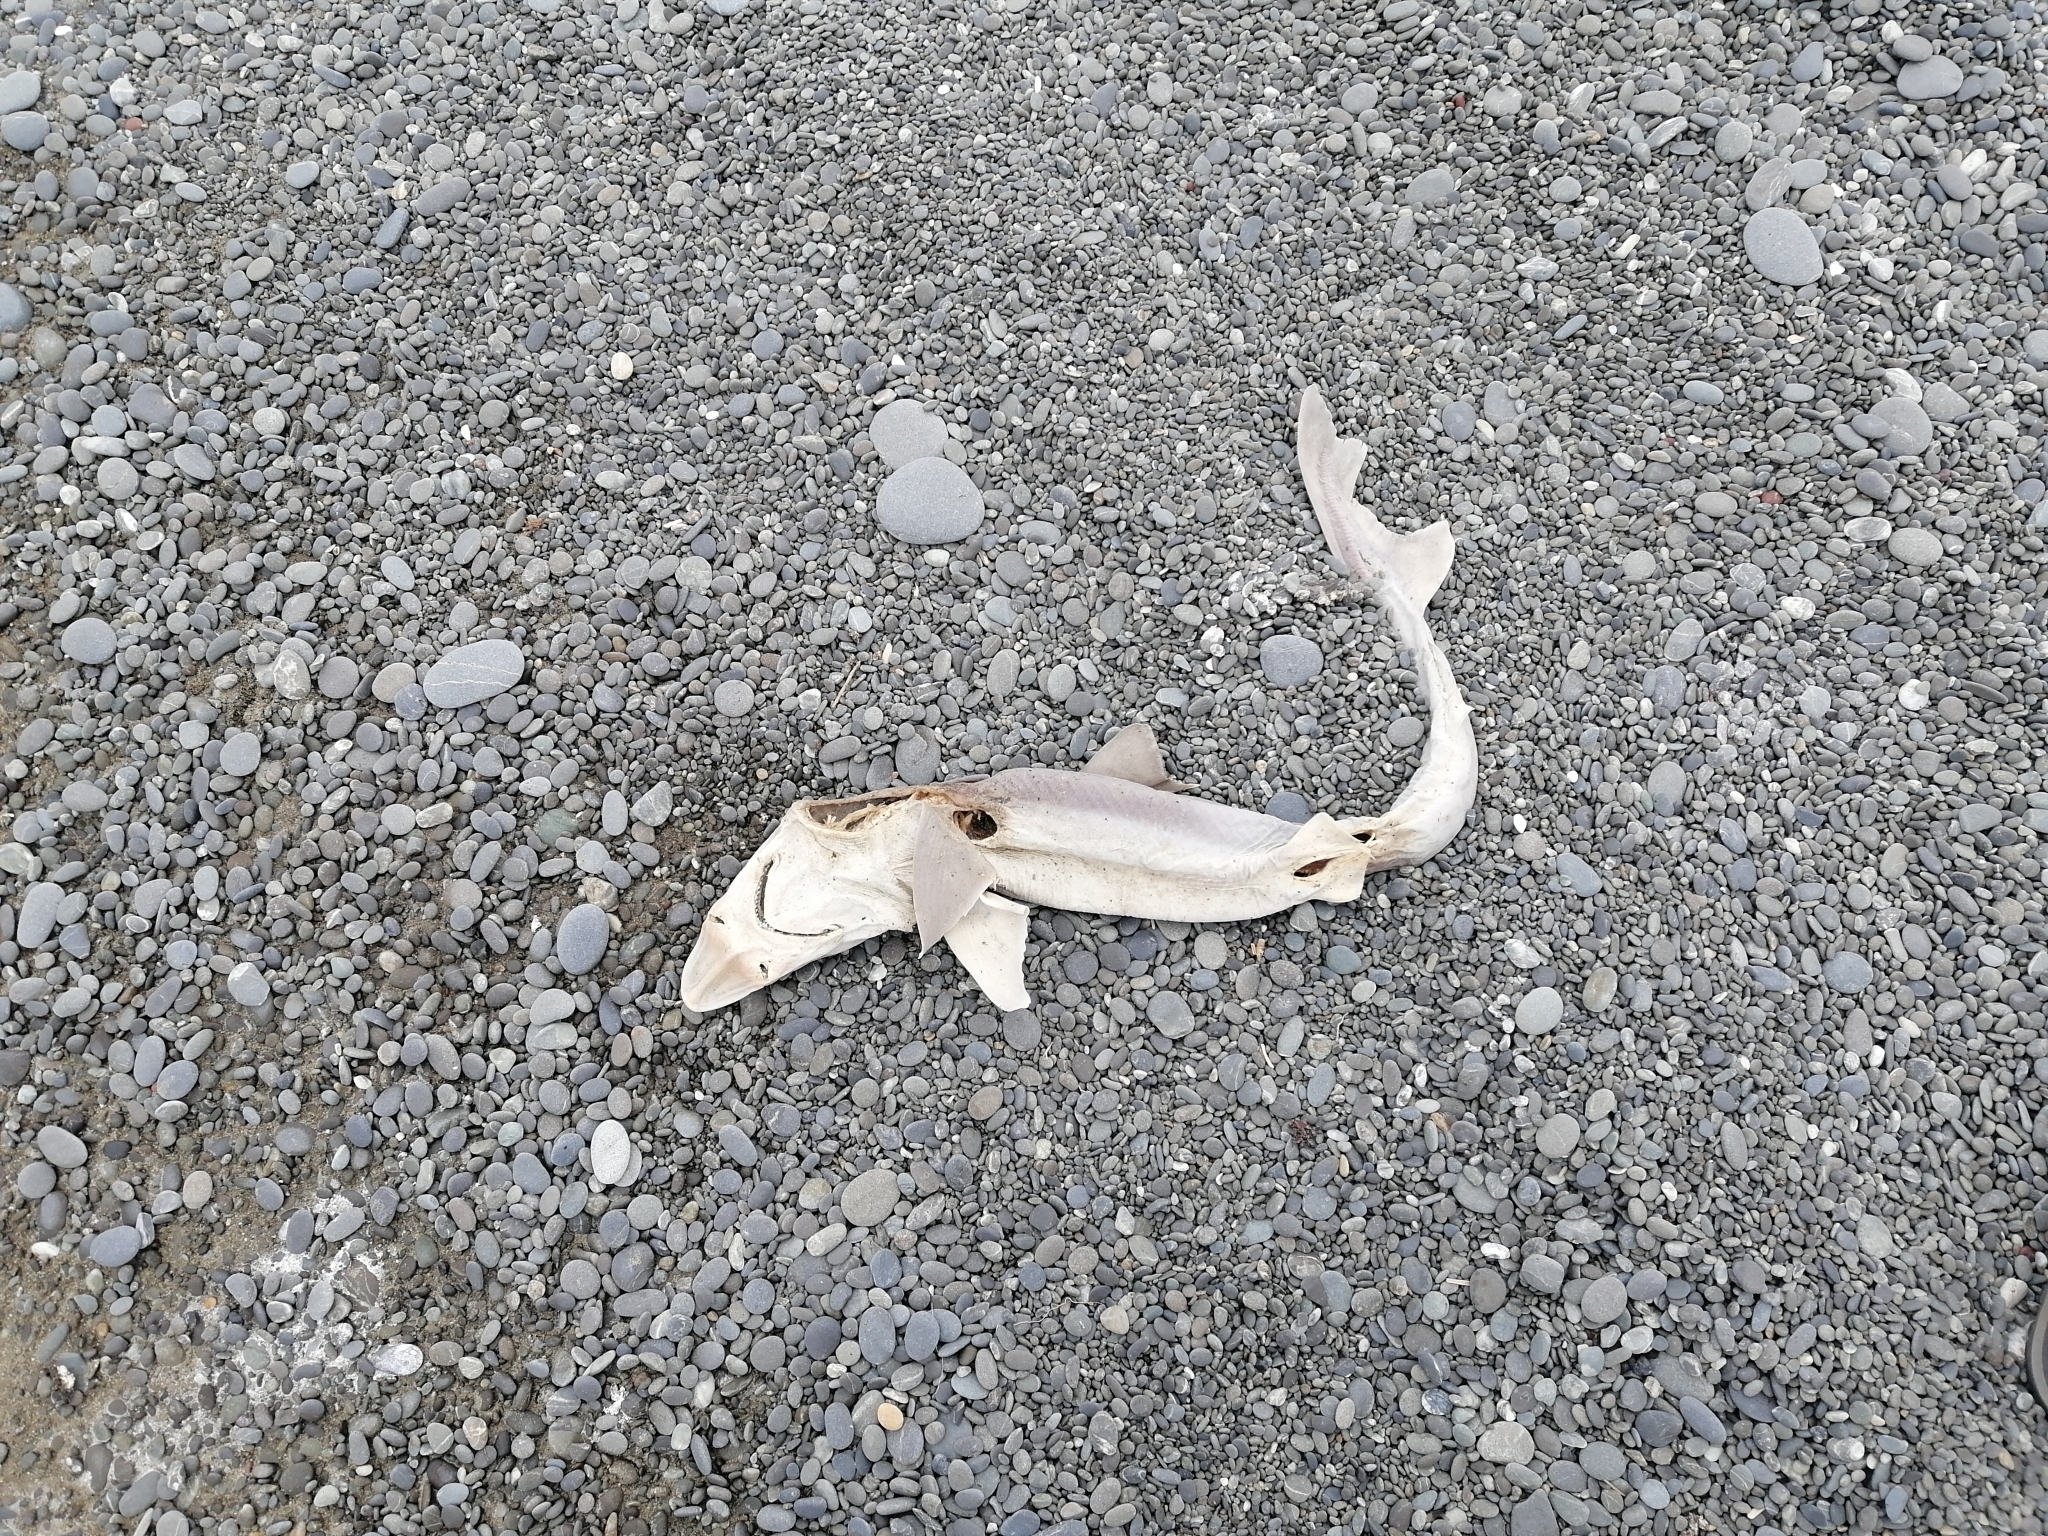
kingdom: Animalia
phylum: Chordata
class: Elasmobranchii
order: Carcharhiniformes
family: Triakidae
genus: Galeorhinus
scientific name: Galeorhinus galeus
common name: Tope
